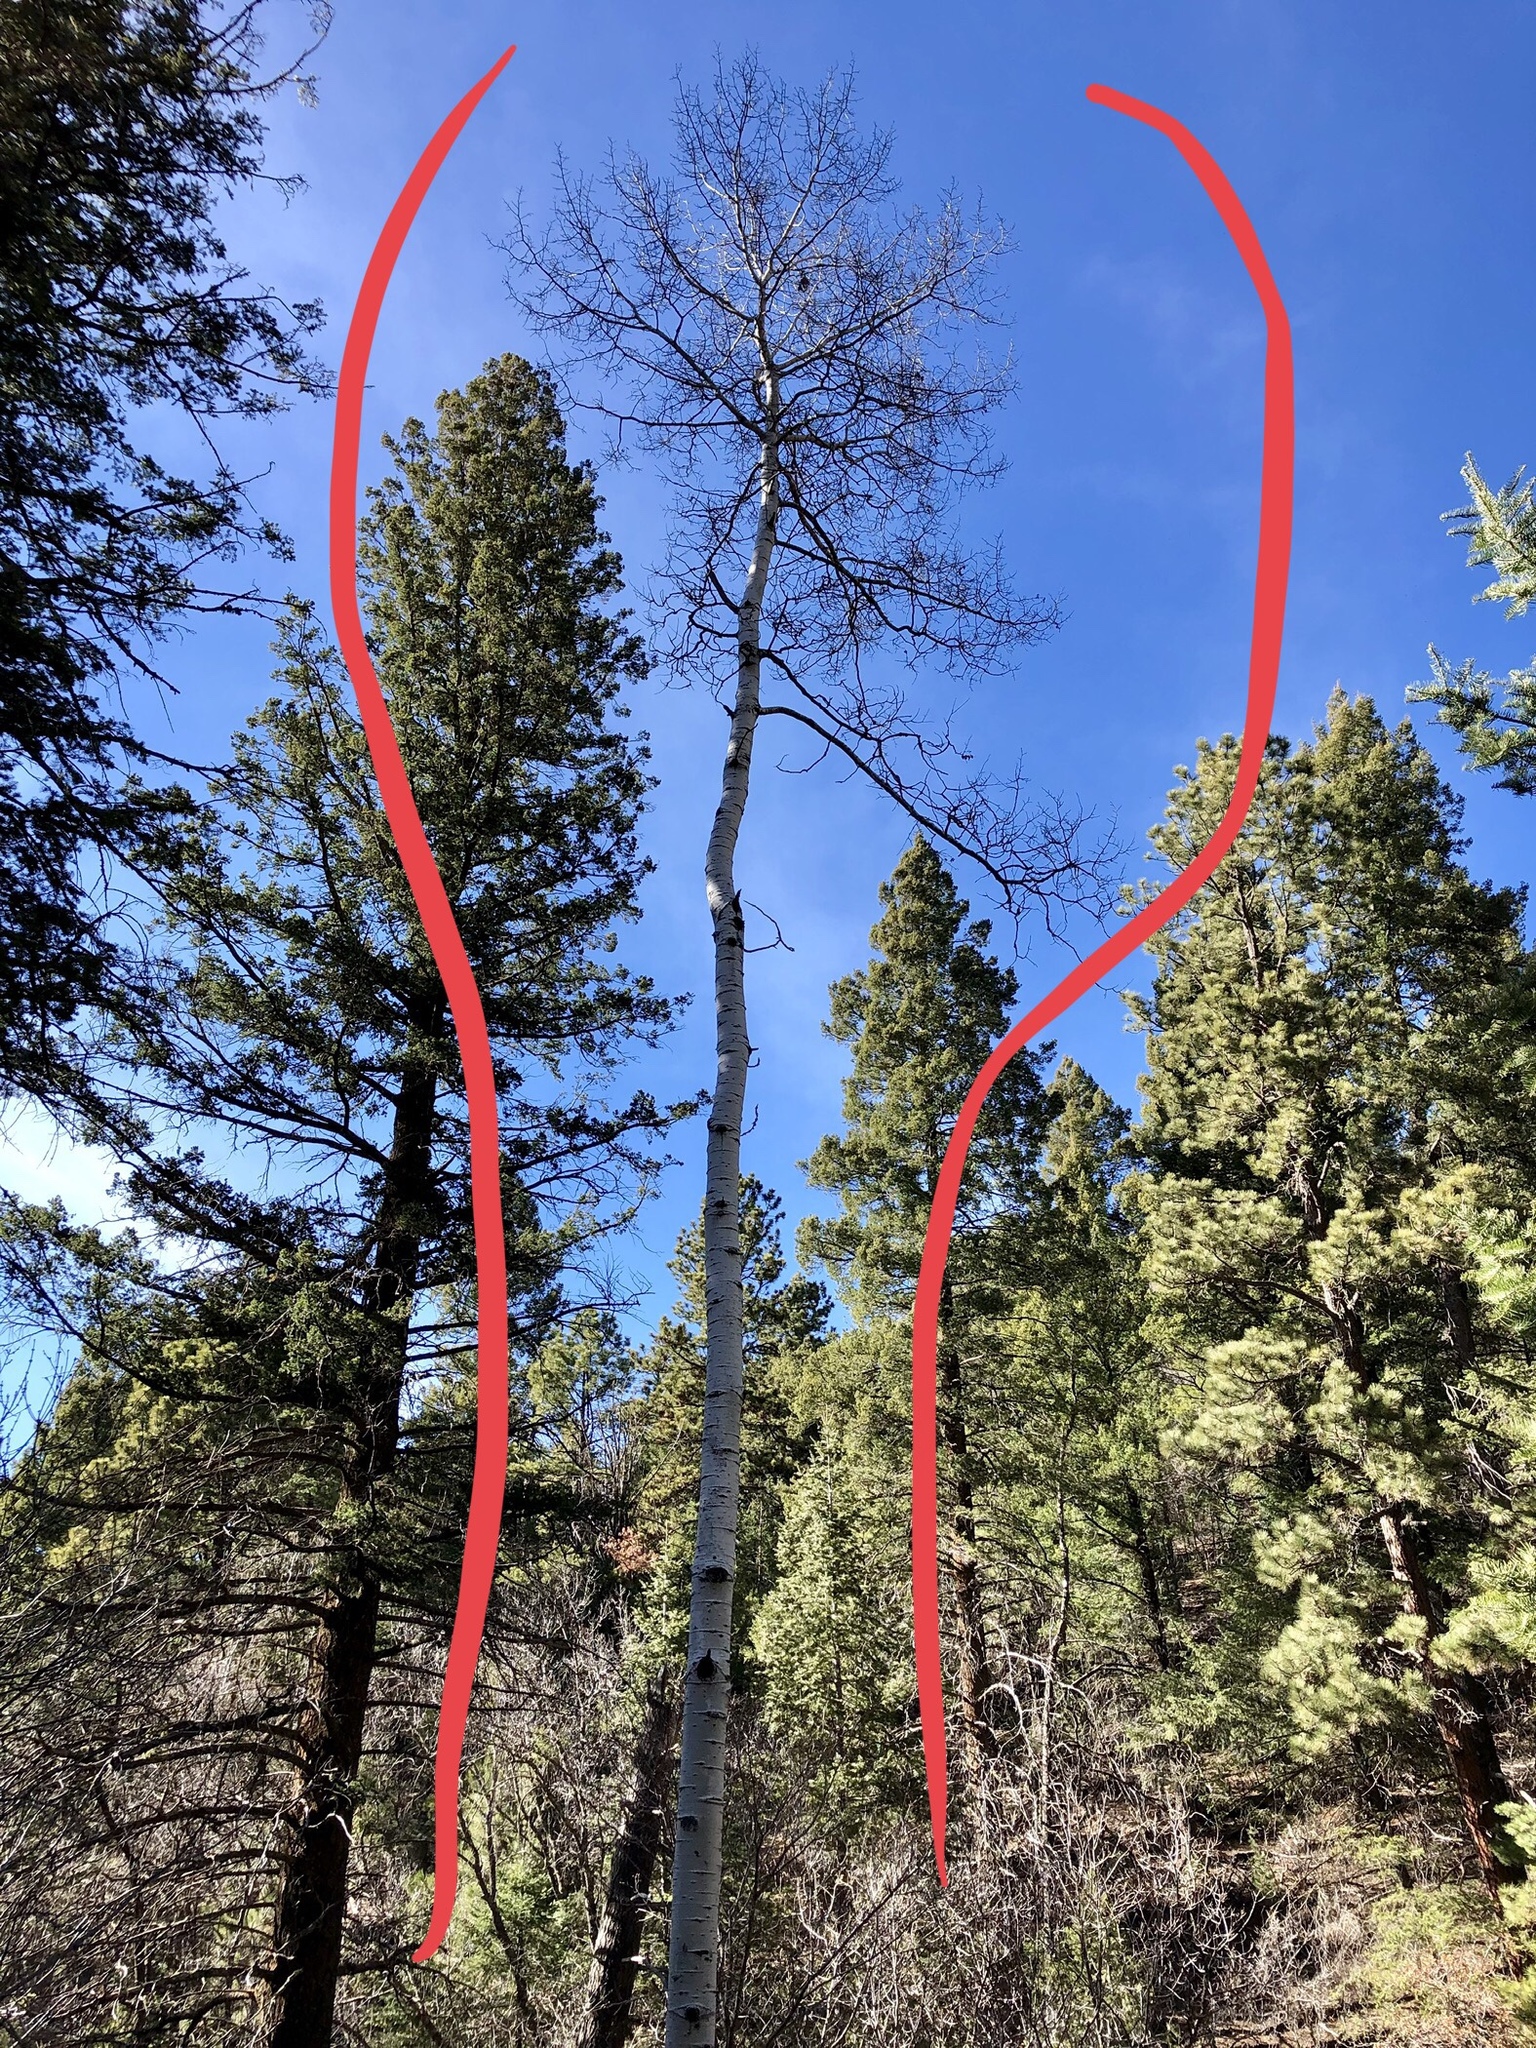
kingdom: Plantae
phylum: Tracheophyta
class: Magnoliopsida
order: Malpighiales
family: Salicaceae
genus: Populus
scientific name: Populus tremuloides
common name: Quaking aspen
